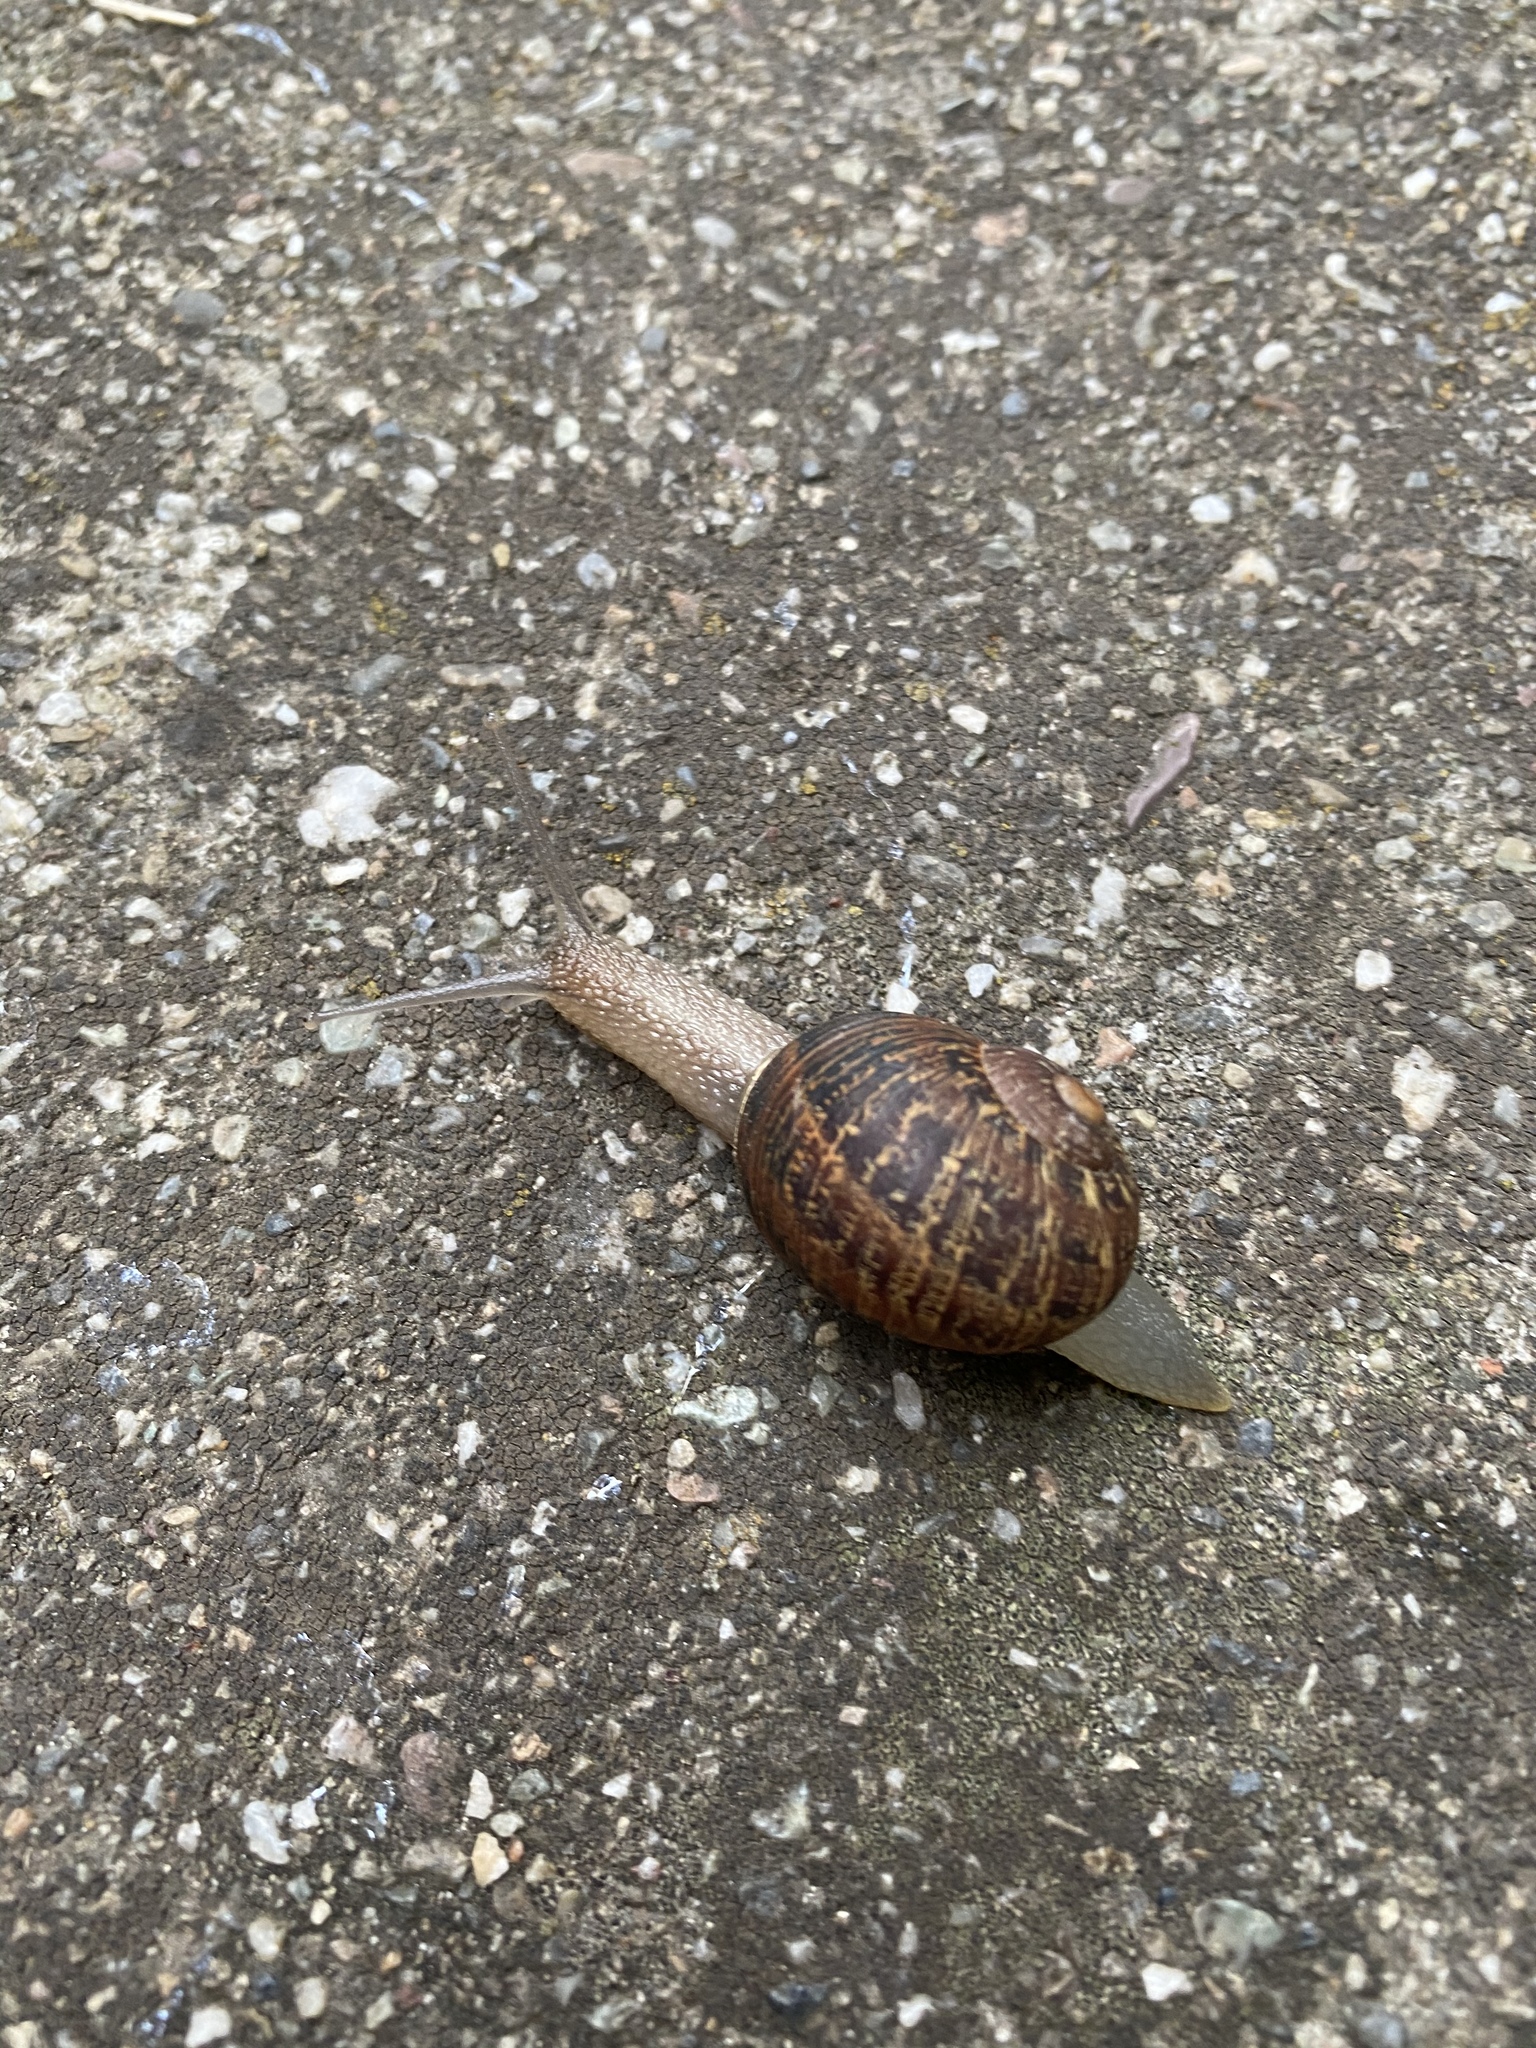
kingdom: Animalia
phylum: Mollusca
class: Gastropoda
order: Stylommatophora
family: Helicidae
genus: Cornu
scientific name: Cornu aspersum
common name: Brown garden snail
